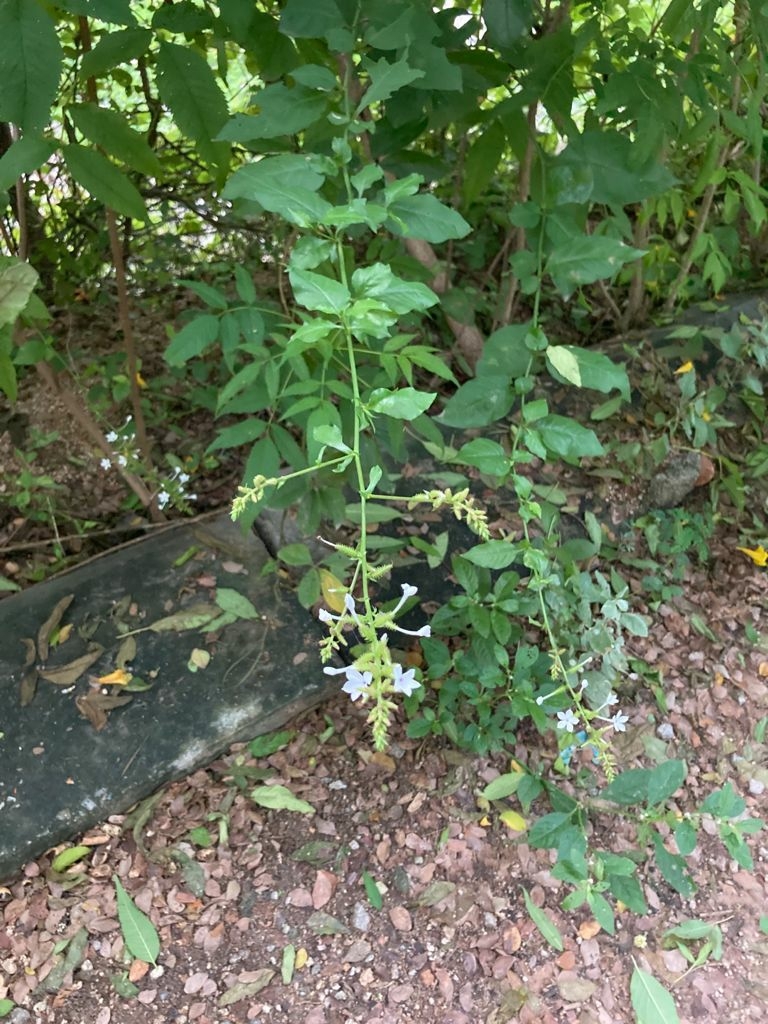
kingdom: Plantae
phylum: Tracheophyta
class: Magnoliopsida
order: Caryophyllales
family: Plumbaginaceae
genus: Plumbago
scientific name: Plumbago zeylanica
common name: Doctorbush
